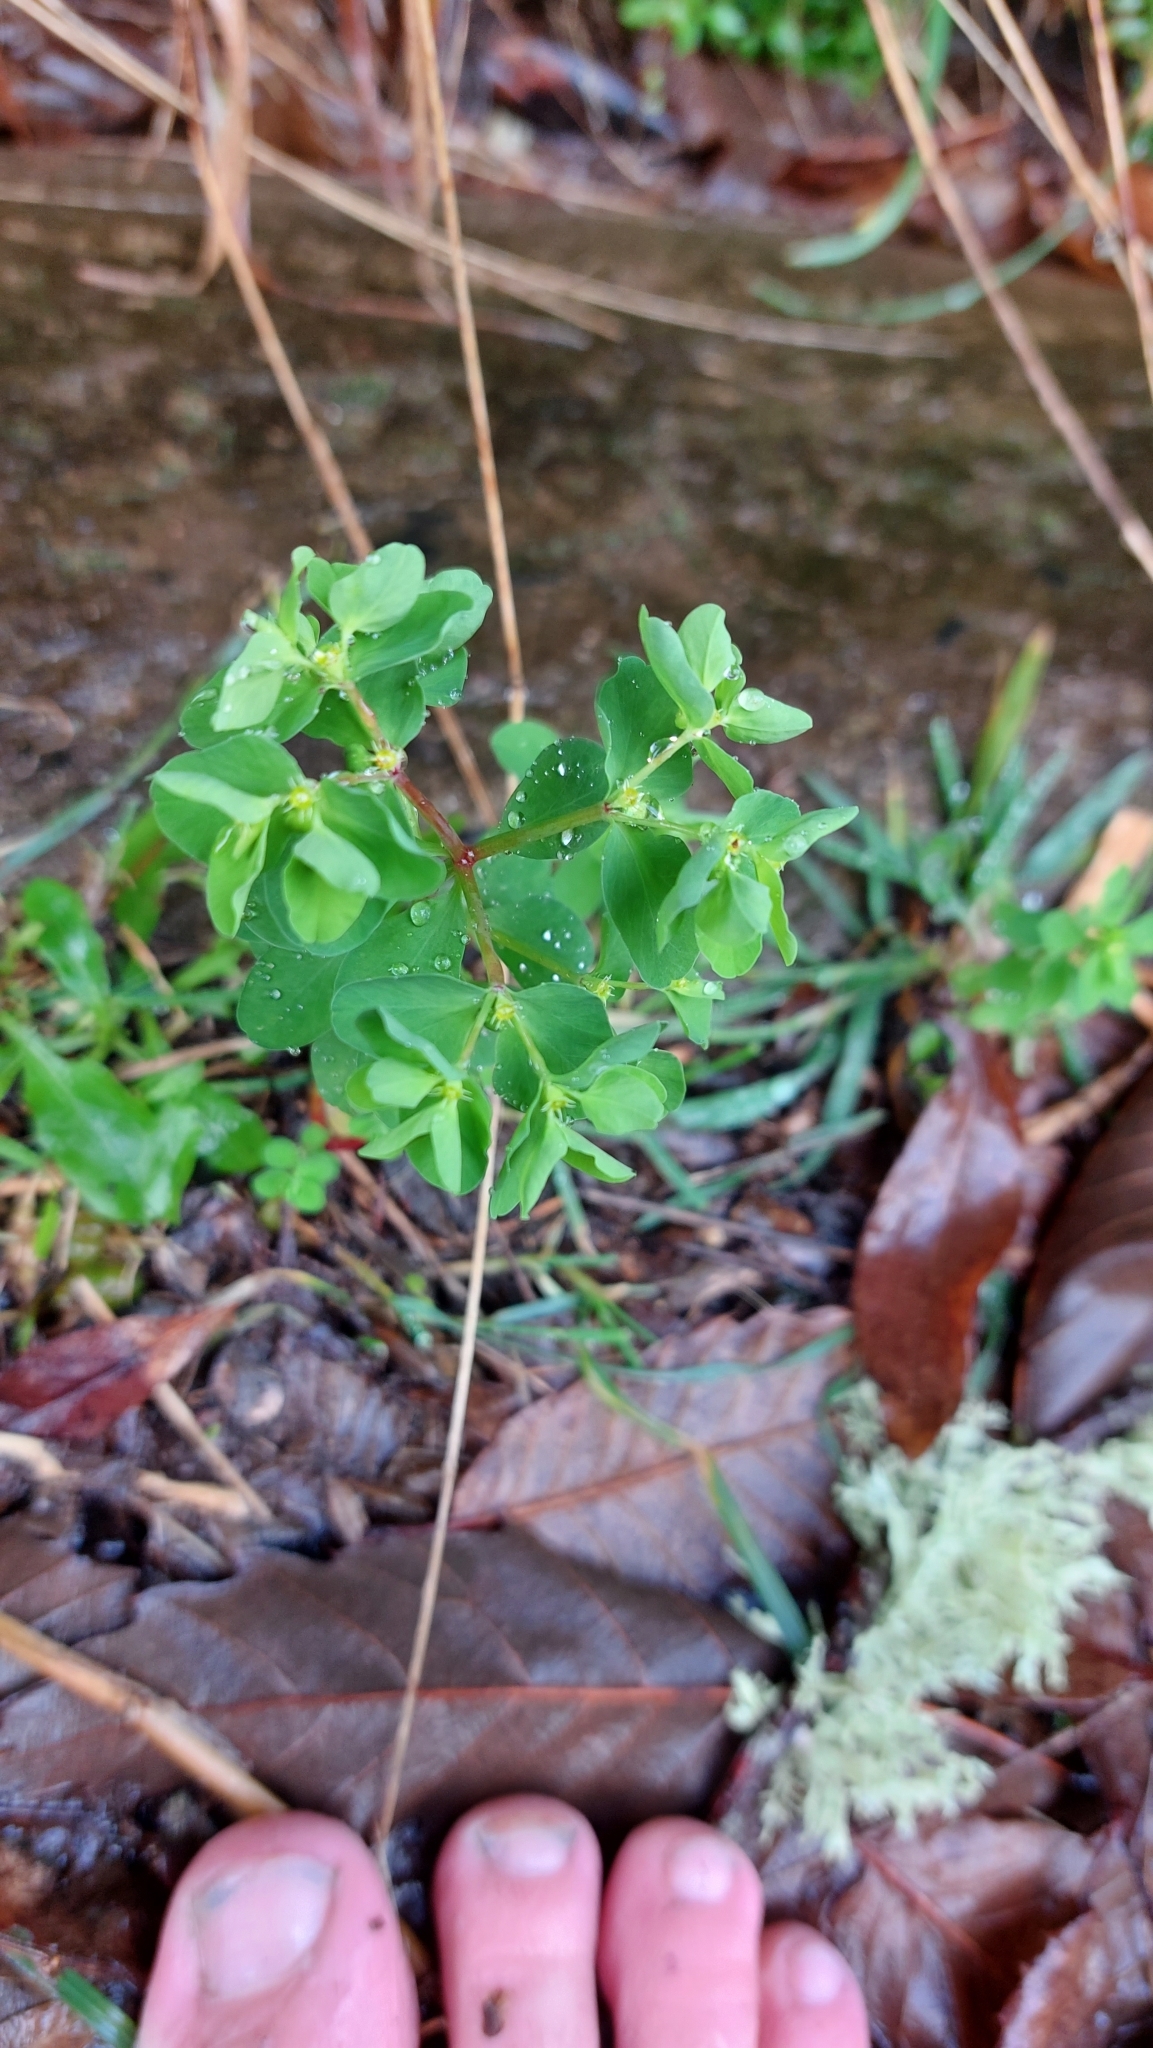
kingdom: Plantae
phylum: Tracheophyta
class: Magnoliopsida
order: Malpighiales
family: Euphorbiaceae
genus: Euphorbia
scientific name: Euphorbia peplus
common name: Petty spurge
